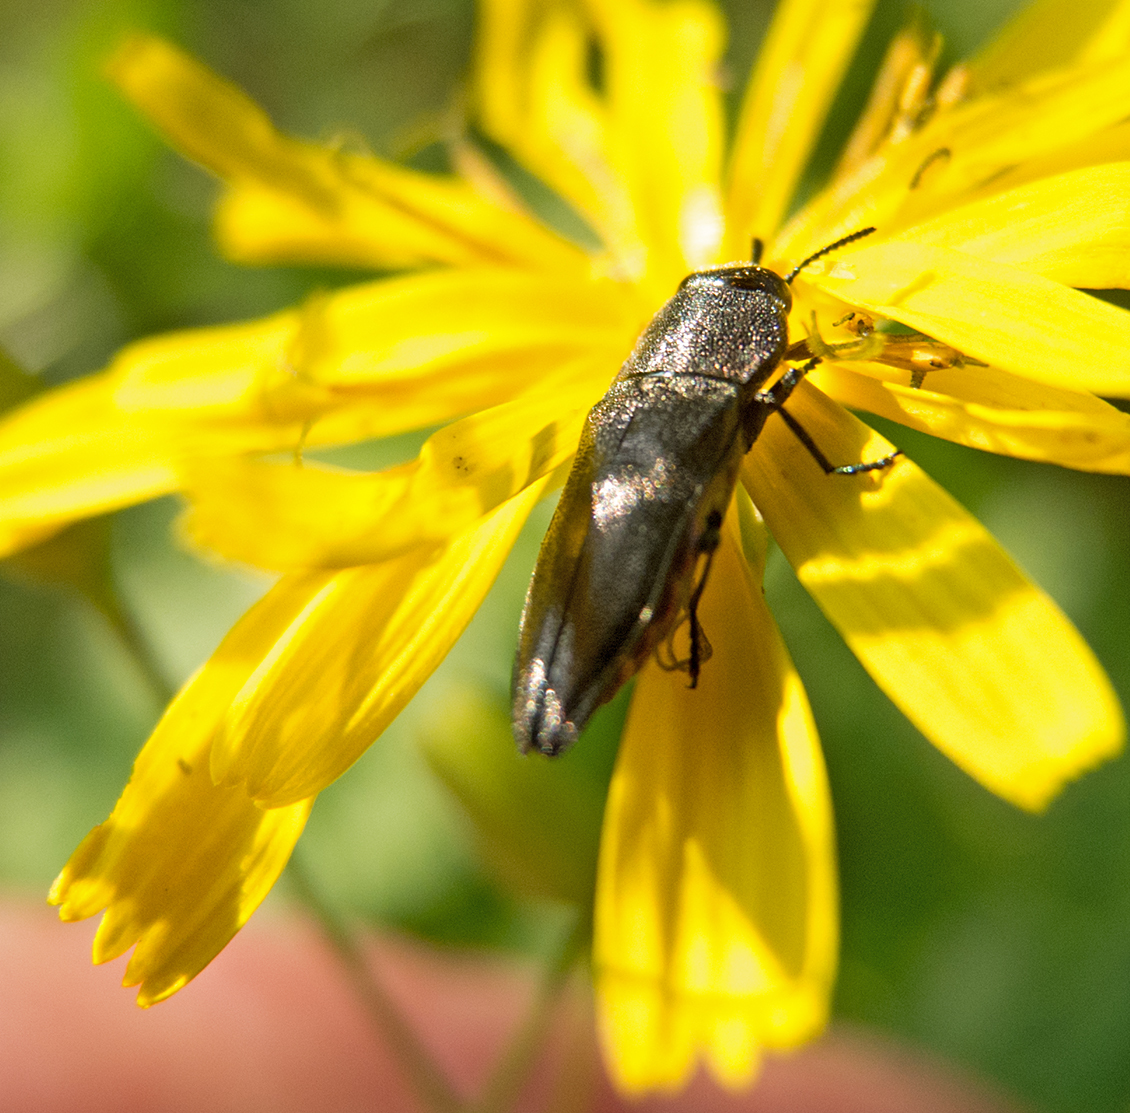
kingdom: Animalia
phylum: Arthropoda
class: Insecta
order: Coleoptera
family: Buprestidae
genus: Anthaxia
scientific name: Anthaxia kiesenwetteri
